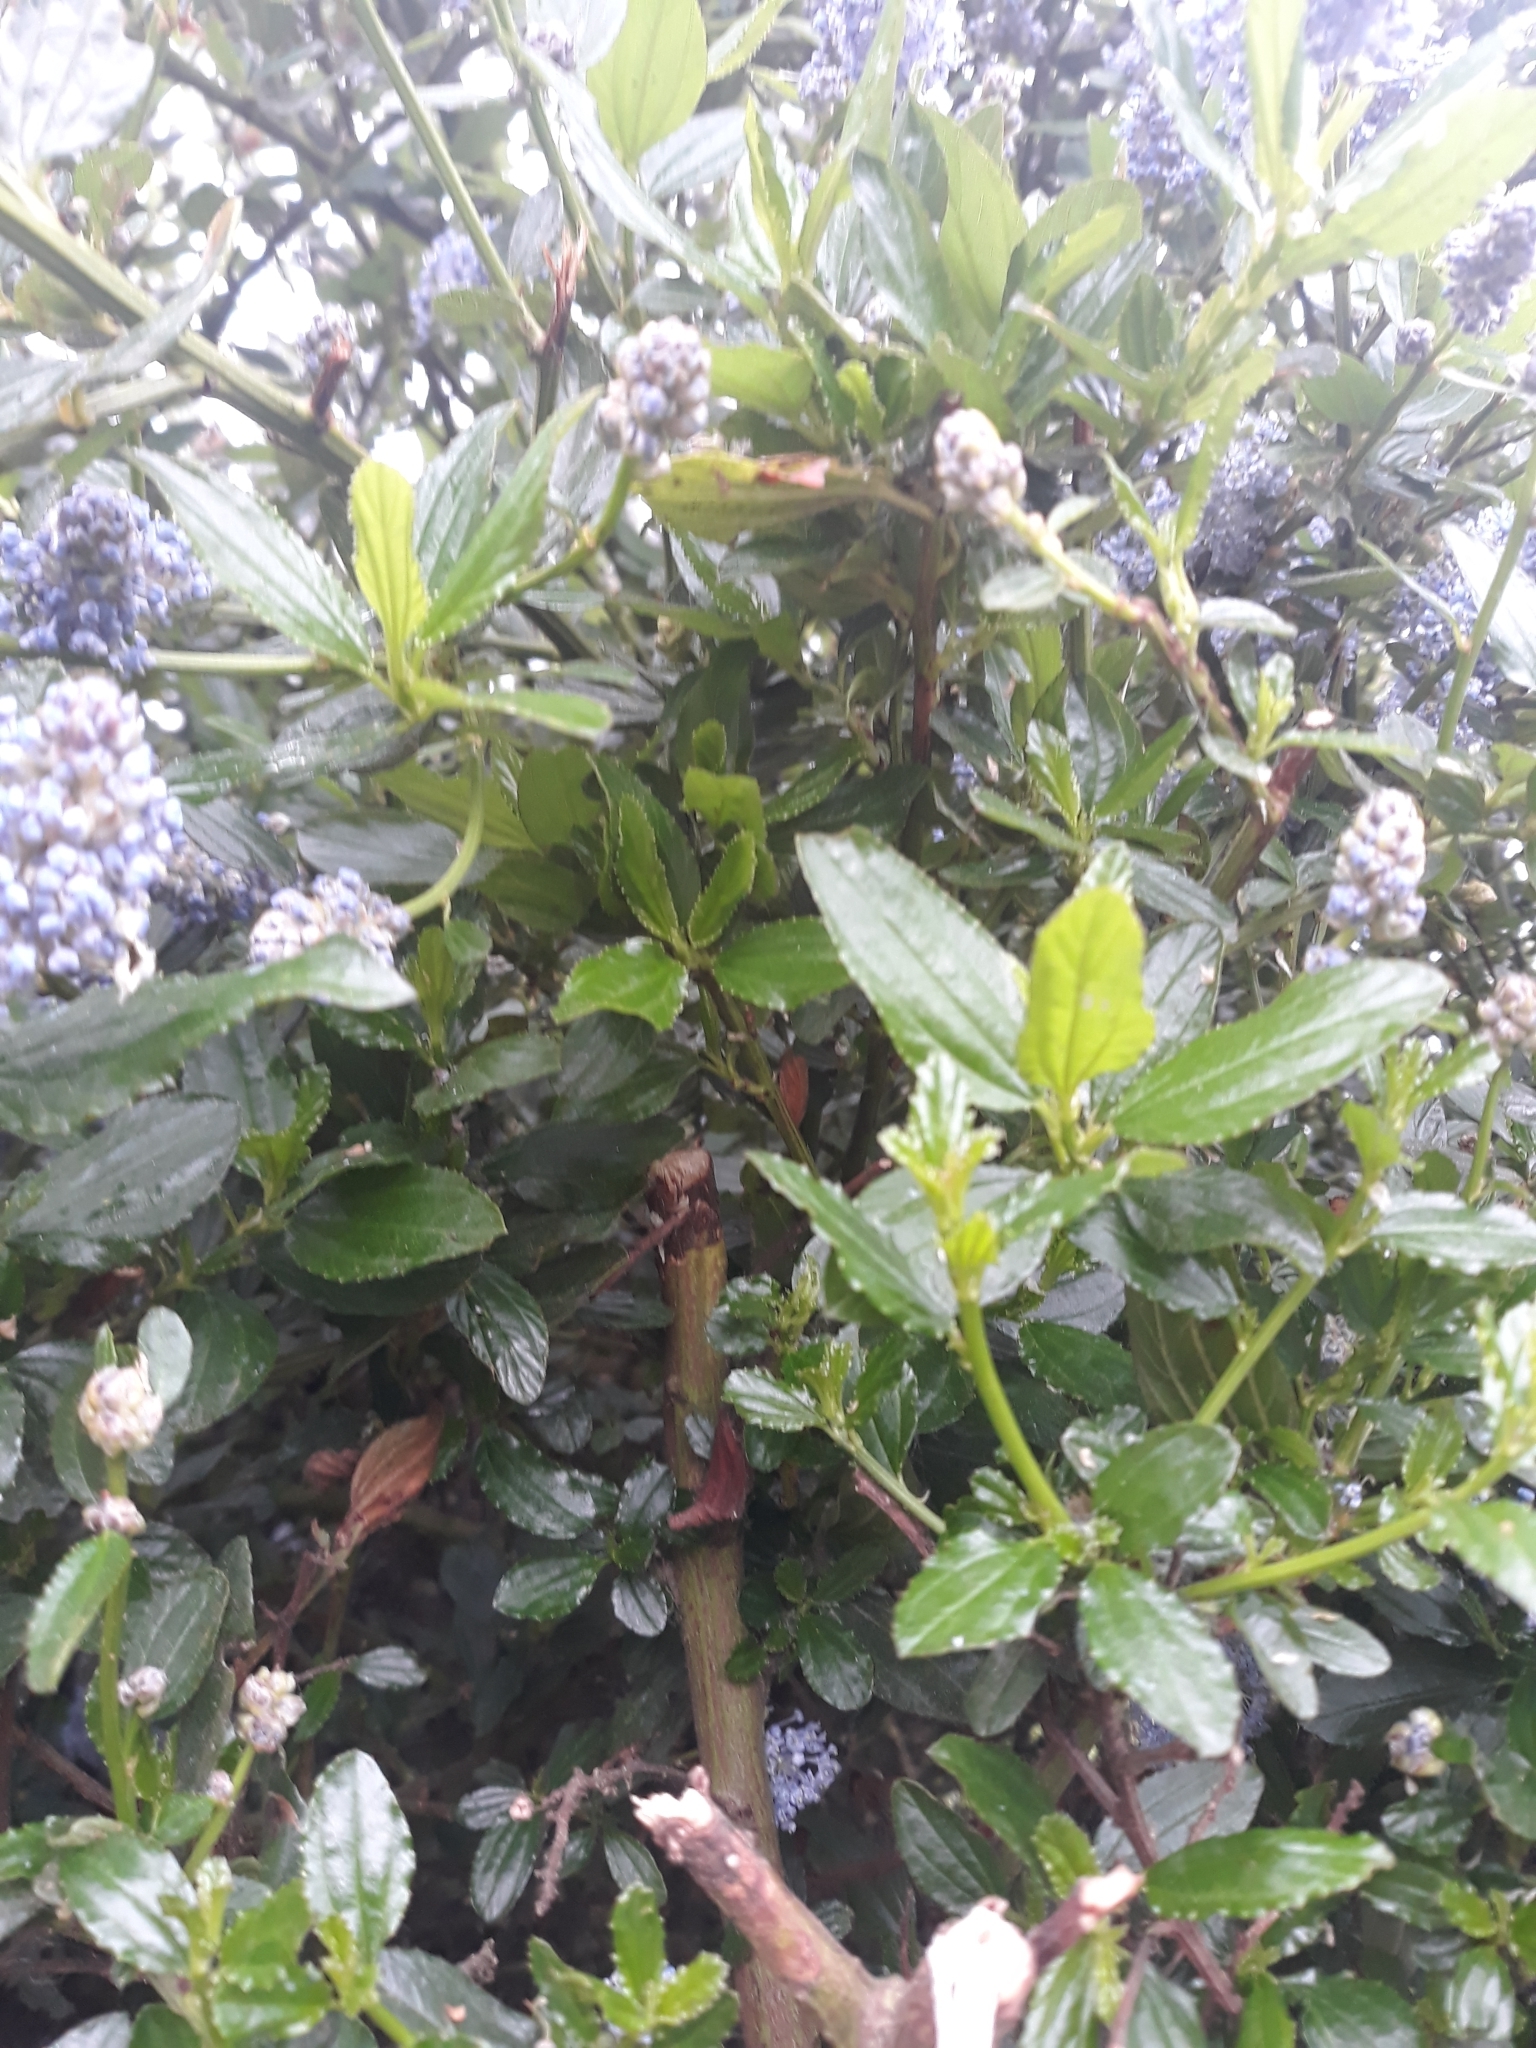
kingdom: Plantae
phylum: Tracheophyta
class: Magnoliopsida
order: Rosales
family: Rhamnaceae
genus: Ceanothus
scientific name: Ceanothus thyrsiflorus
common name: California-lilac
